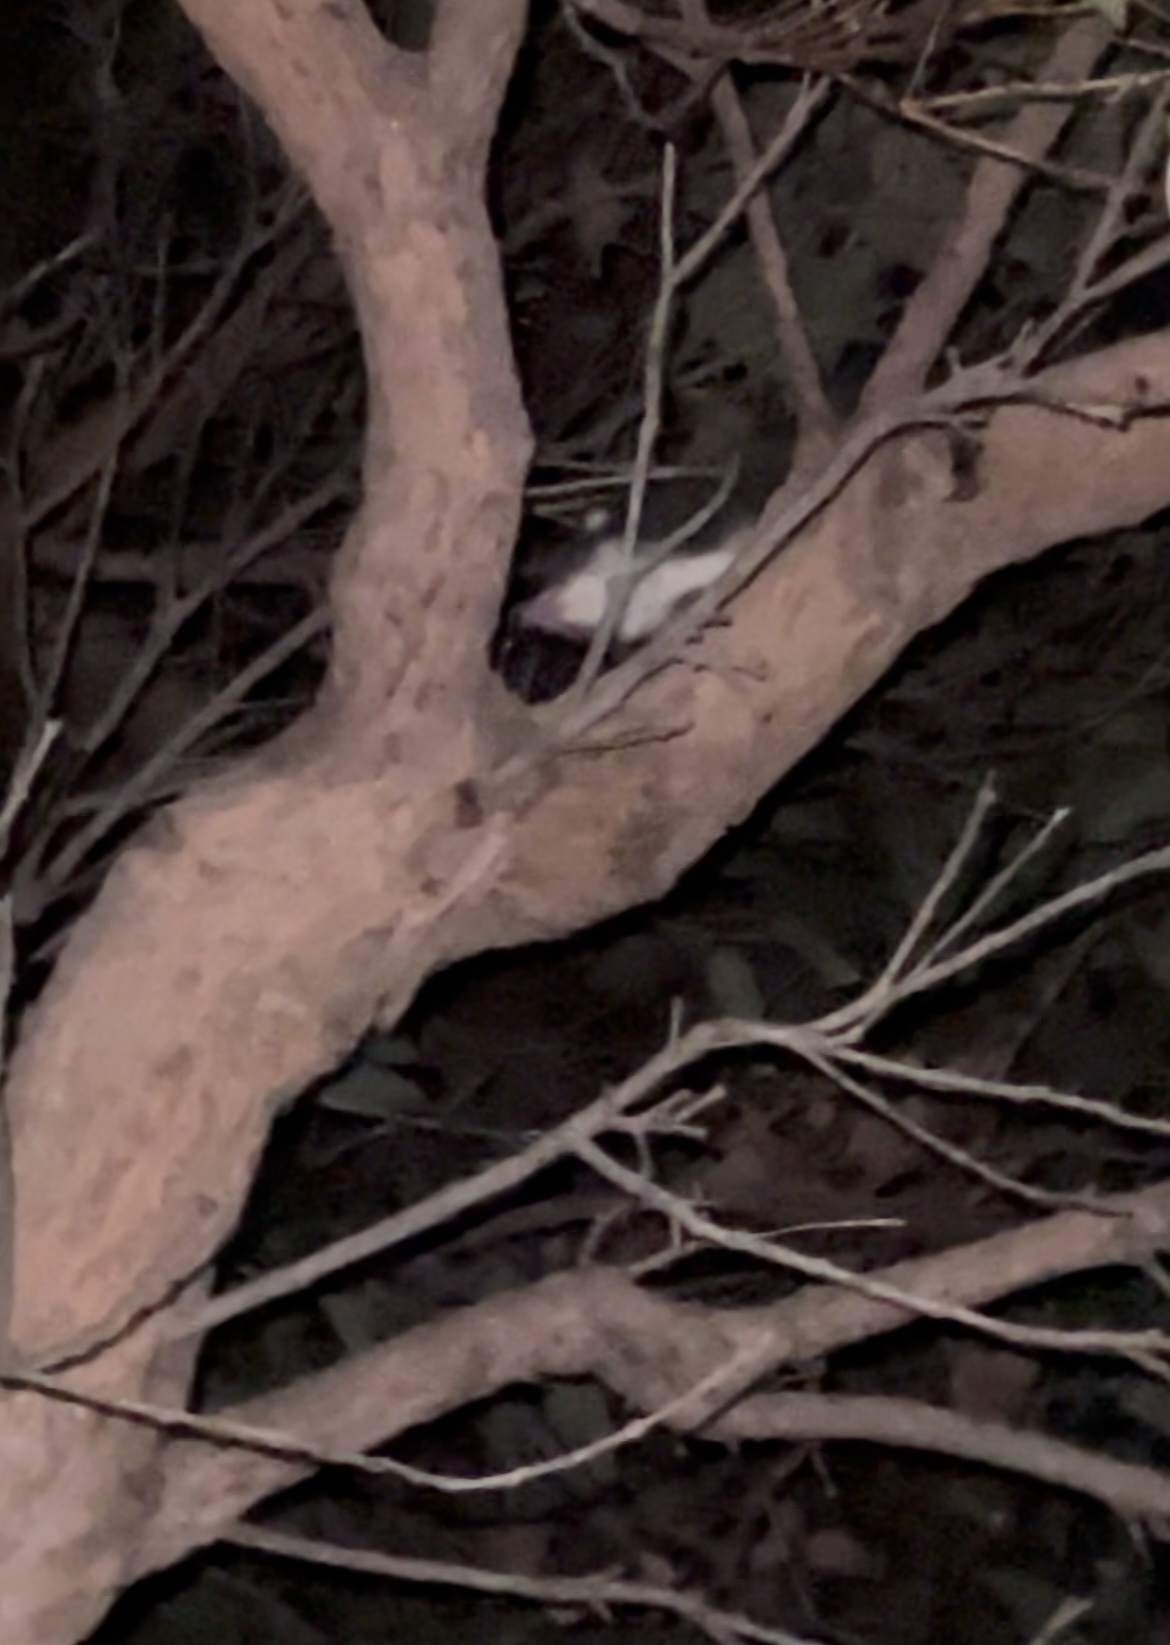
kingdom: Animalia
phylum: Chordata
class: Mammalia
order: Diprotodontia
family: Pseudocheiridae
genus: Pseudocheirus
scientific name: Pseudocheirus peregrinus
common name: Common ringtail possum
